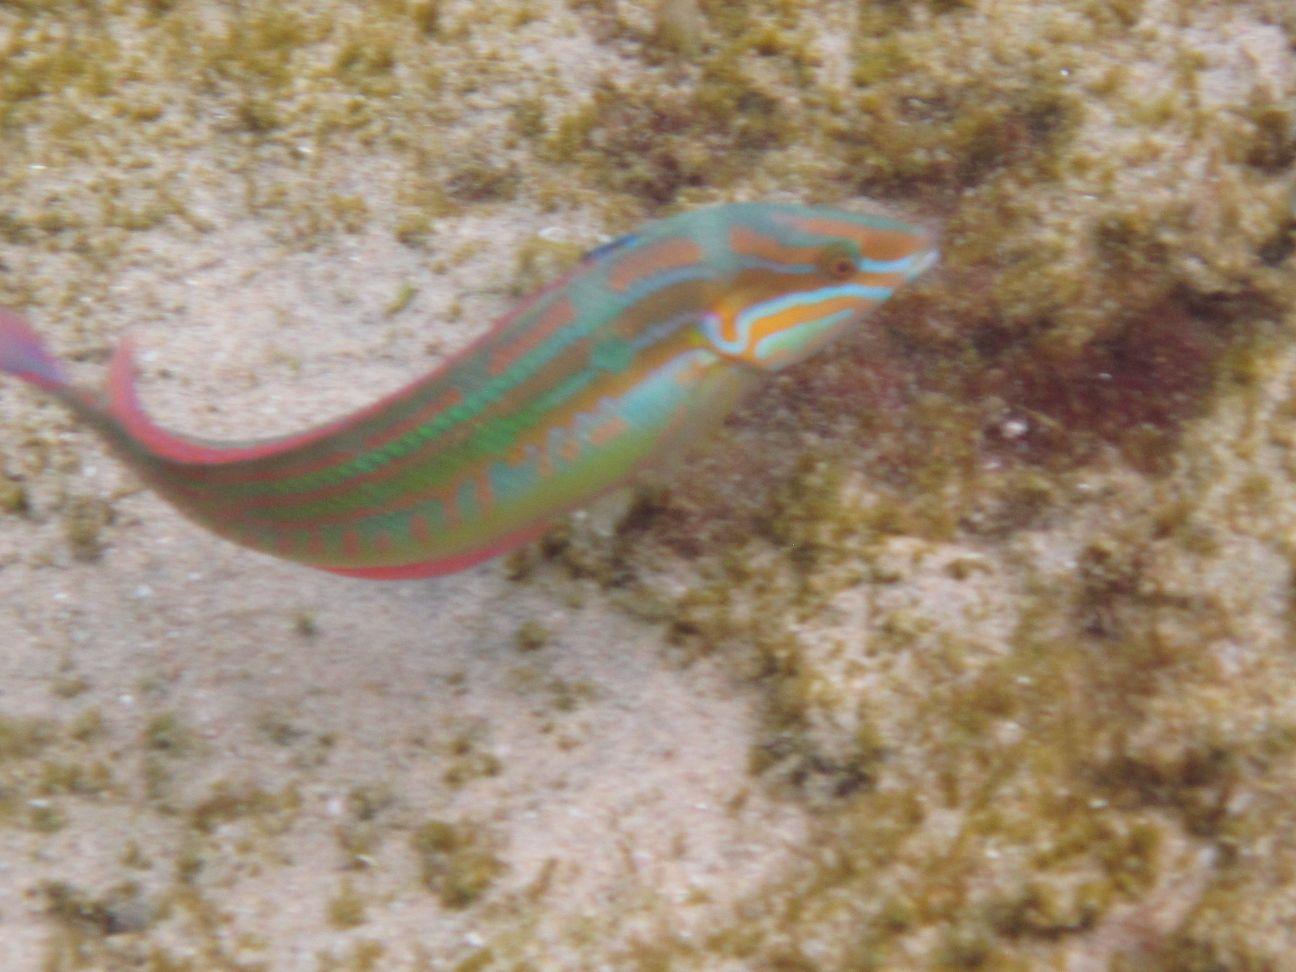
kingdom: Animalia
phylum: Chordata
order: Perciformes
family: Labridae
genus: Coris
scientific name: Coris caudimacula
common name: Spottail coris
